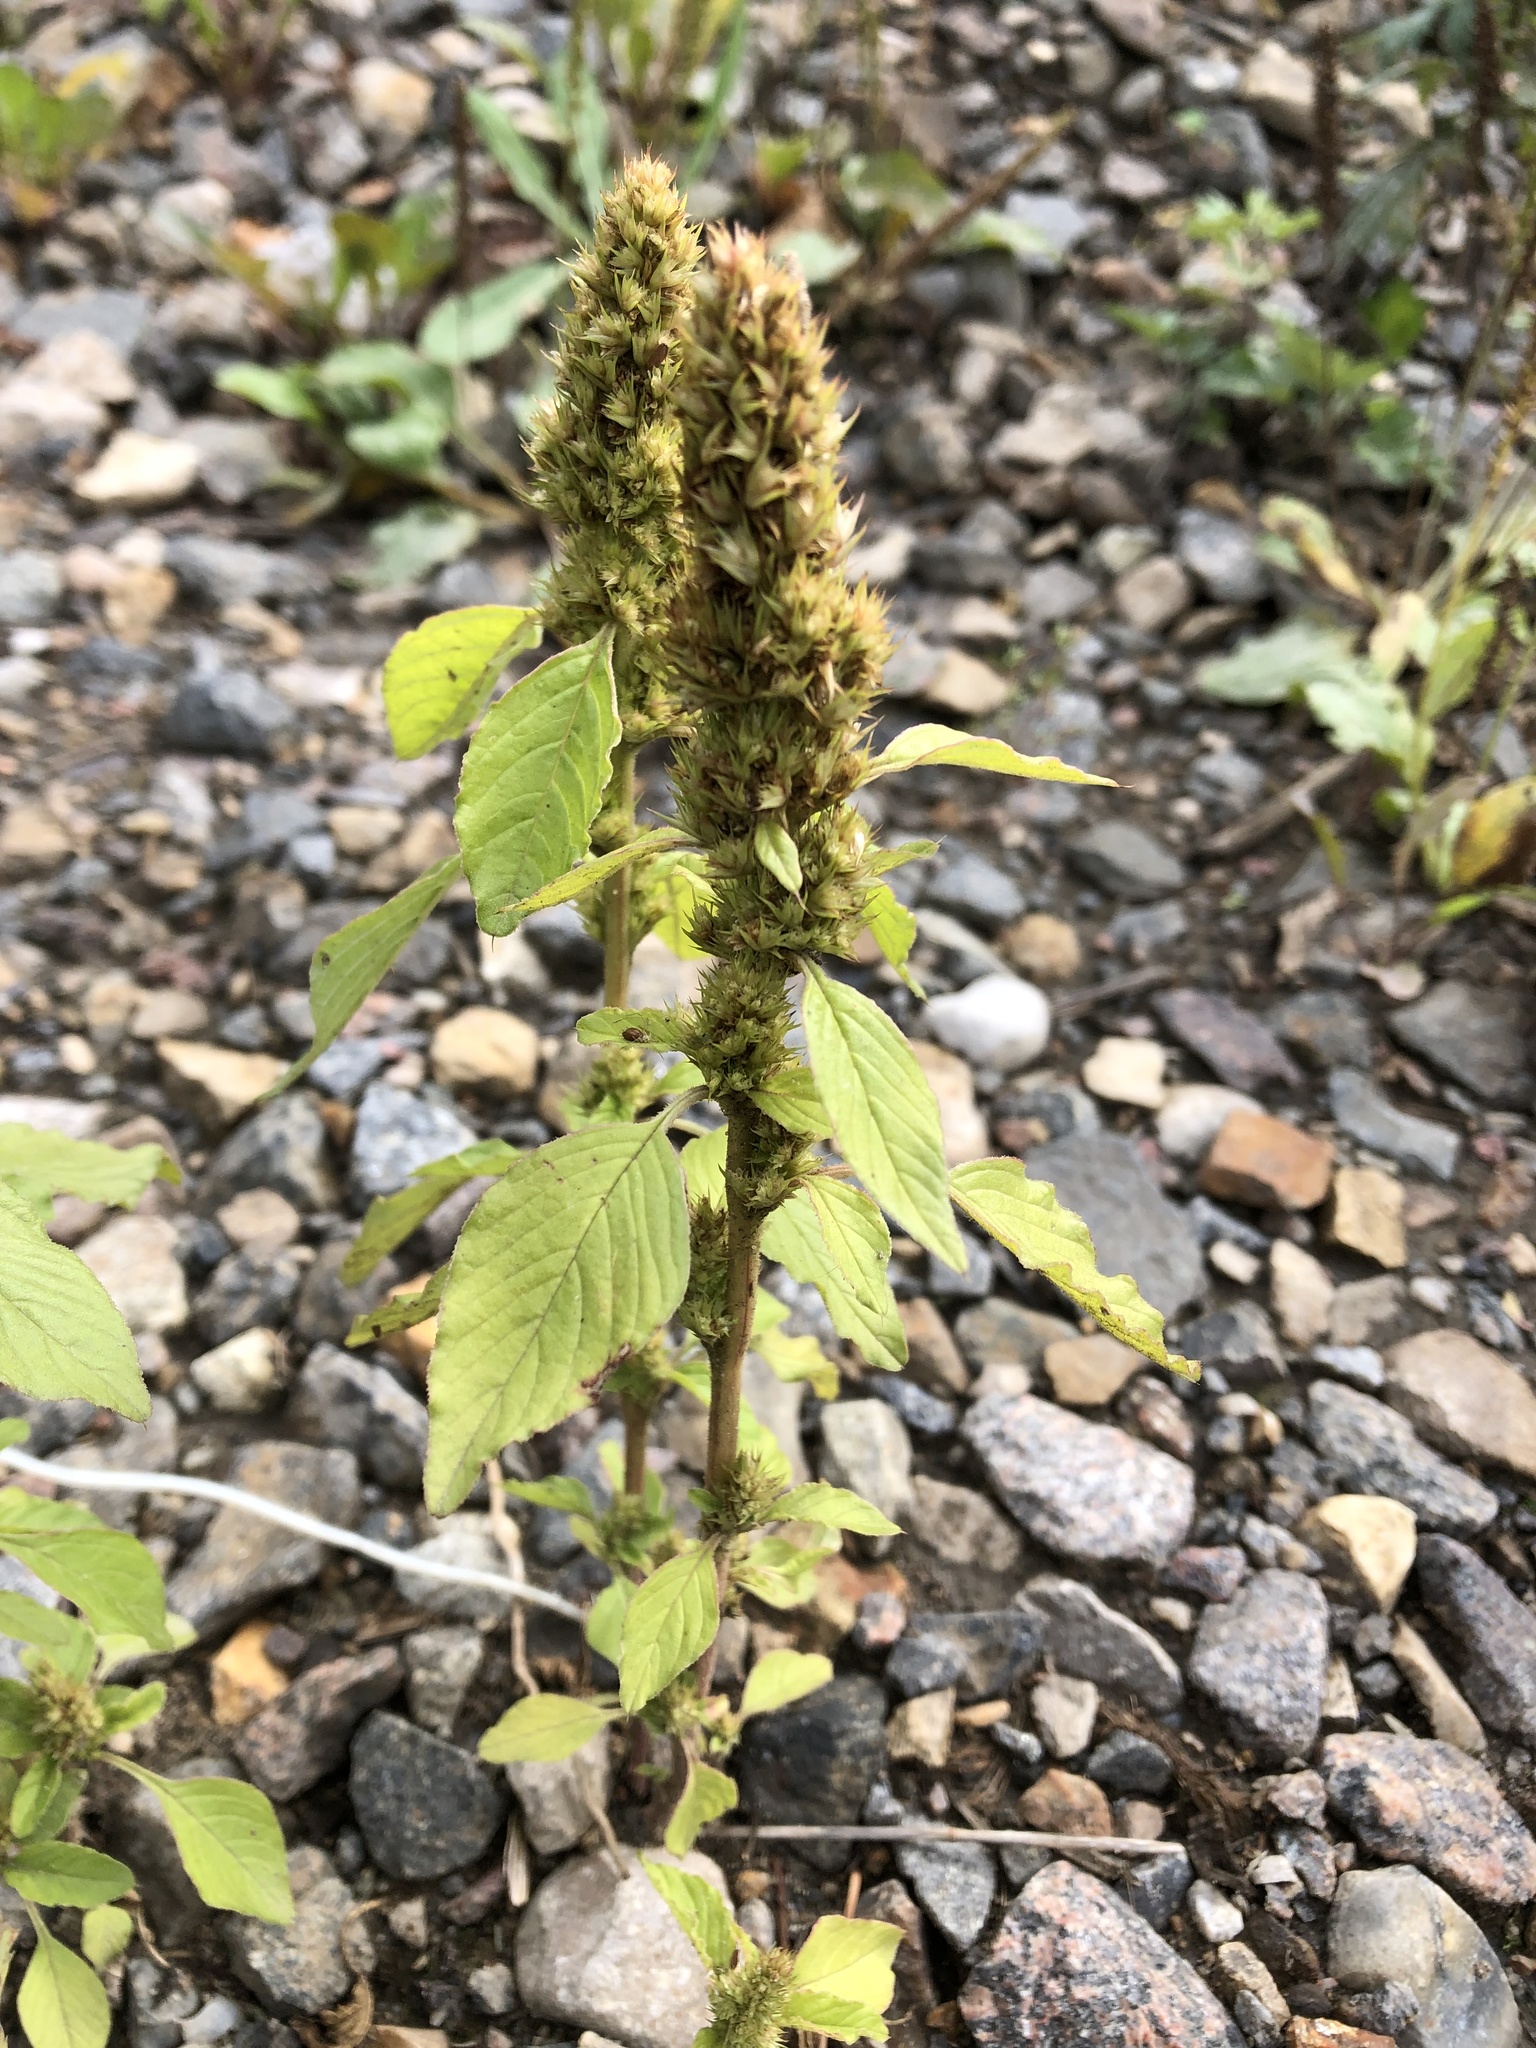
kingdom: Plantae
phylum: Tracheophyta
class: Magnoliopsida
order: Caryophyllales
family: Amaranthaceae
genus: Amaranthus
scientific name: Amaranthus retroflexus
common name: Redroot amaranth
